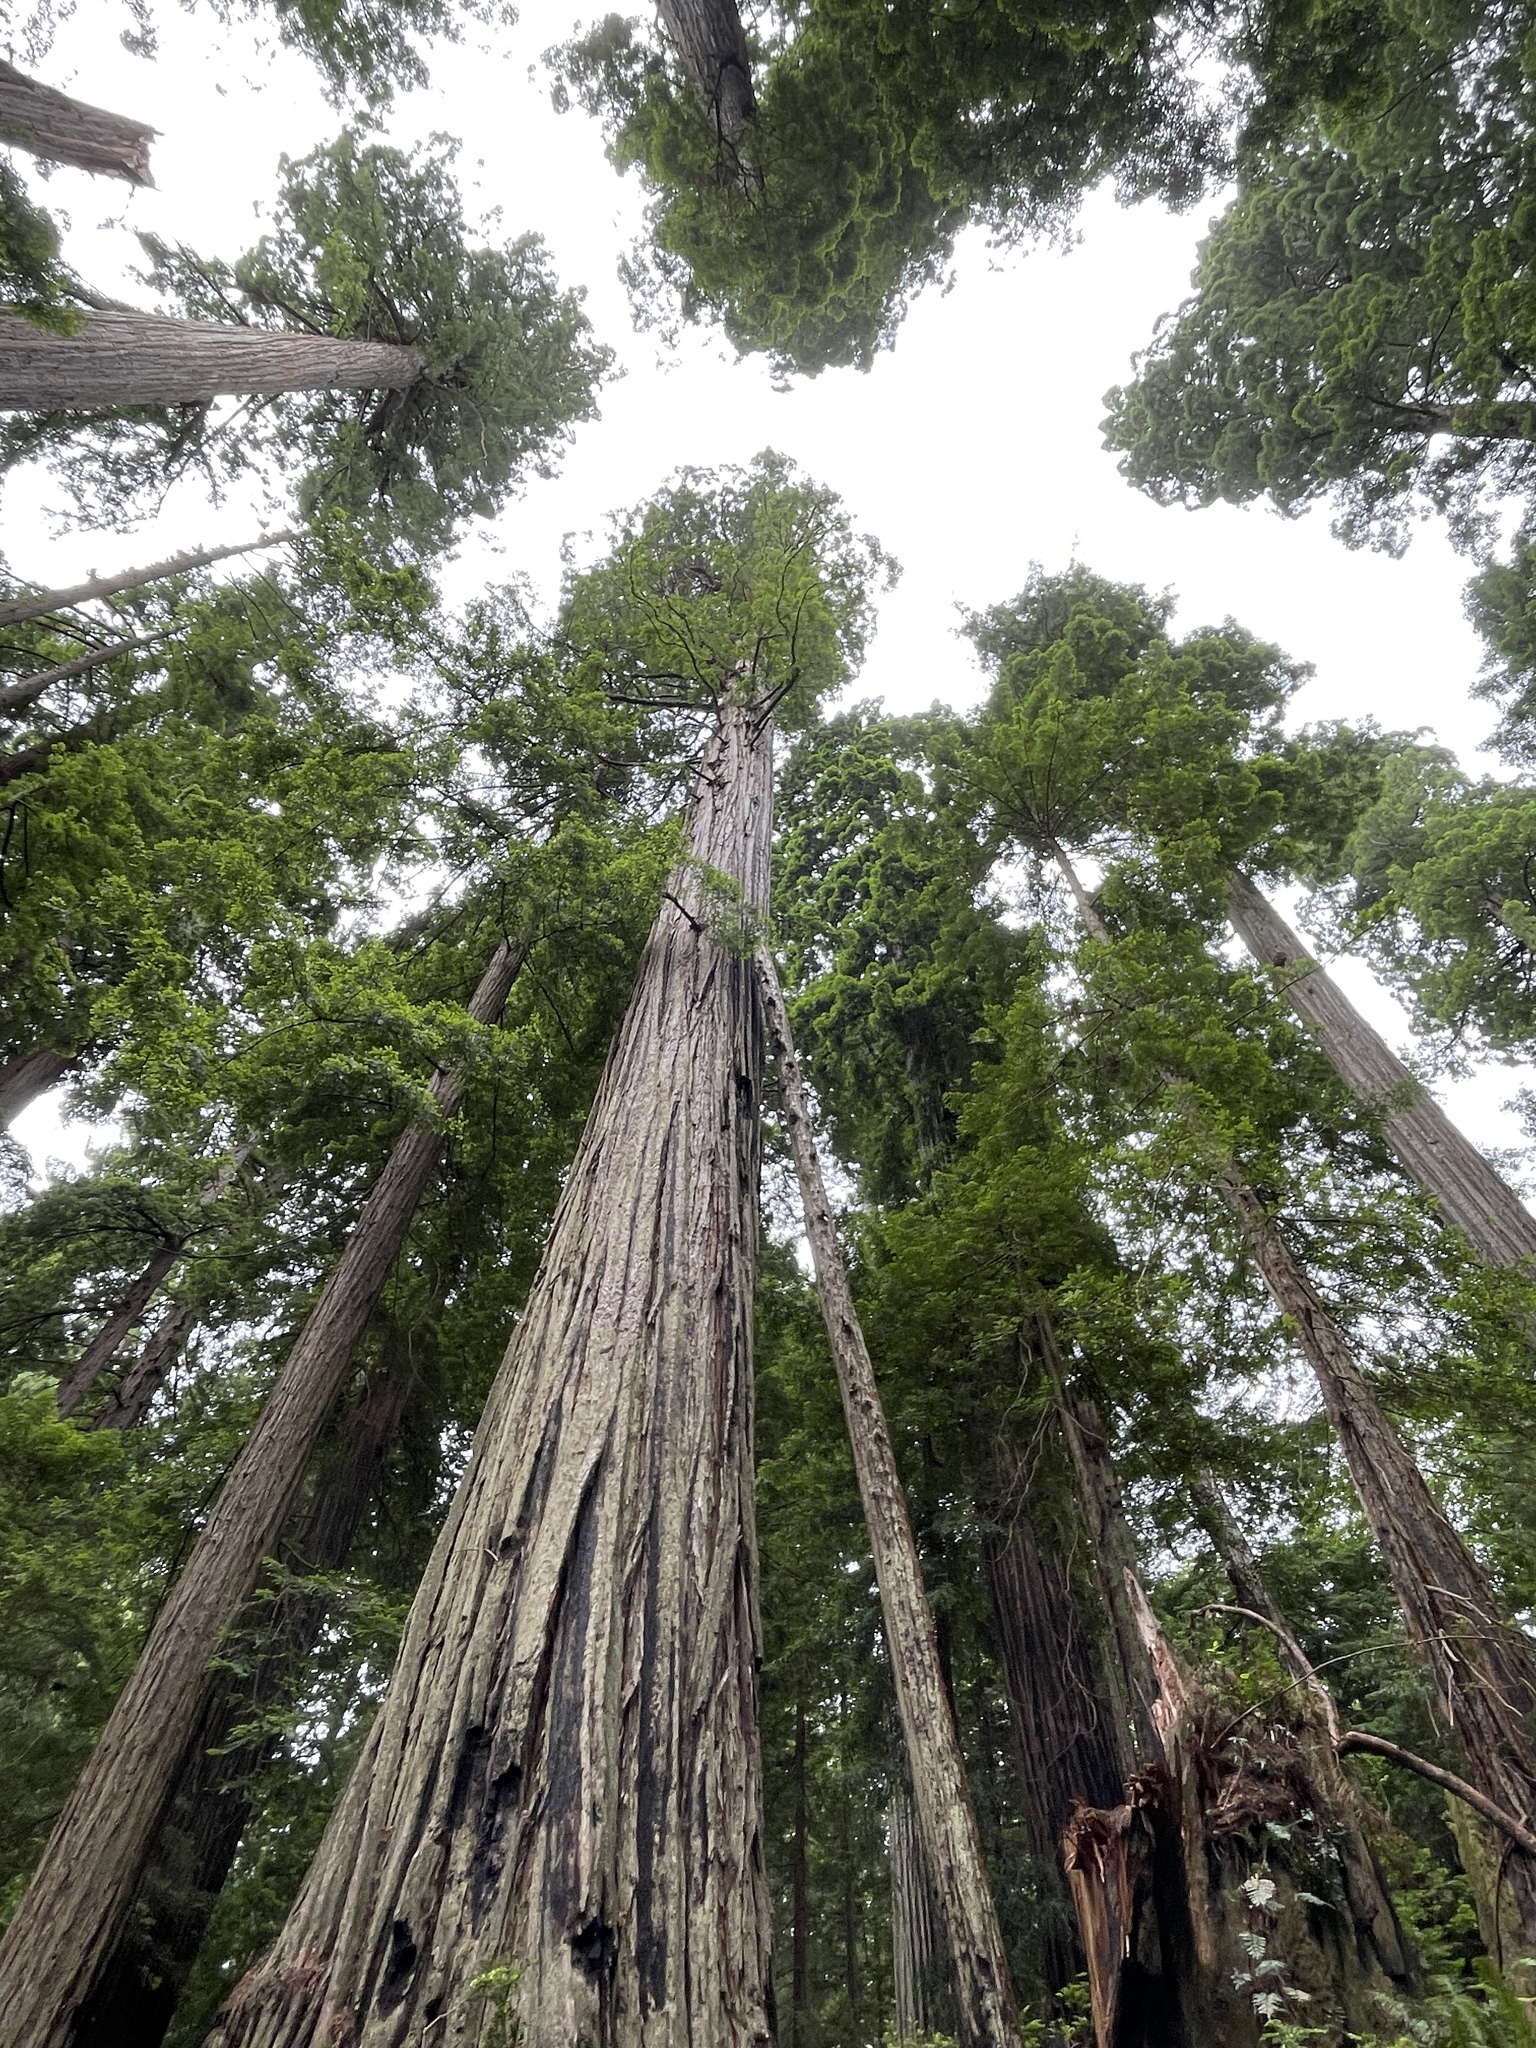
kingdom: Plantae
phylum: Tracheophyta
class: Pinopsida
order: Pinales
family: Cupressaceae
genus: Sequoia
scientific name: Sequoia sempervirens
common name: Coast redwood
